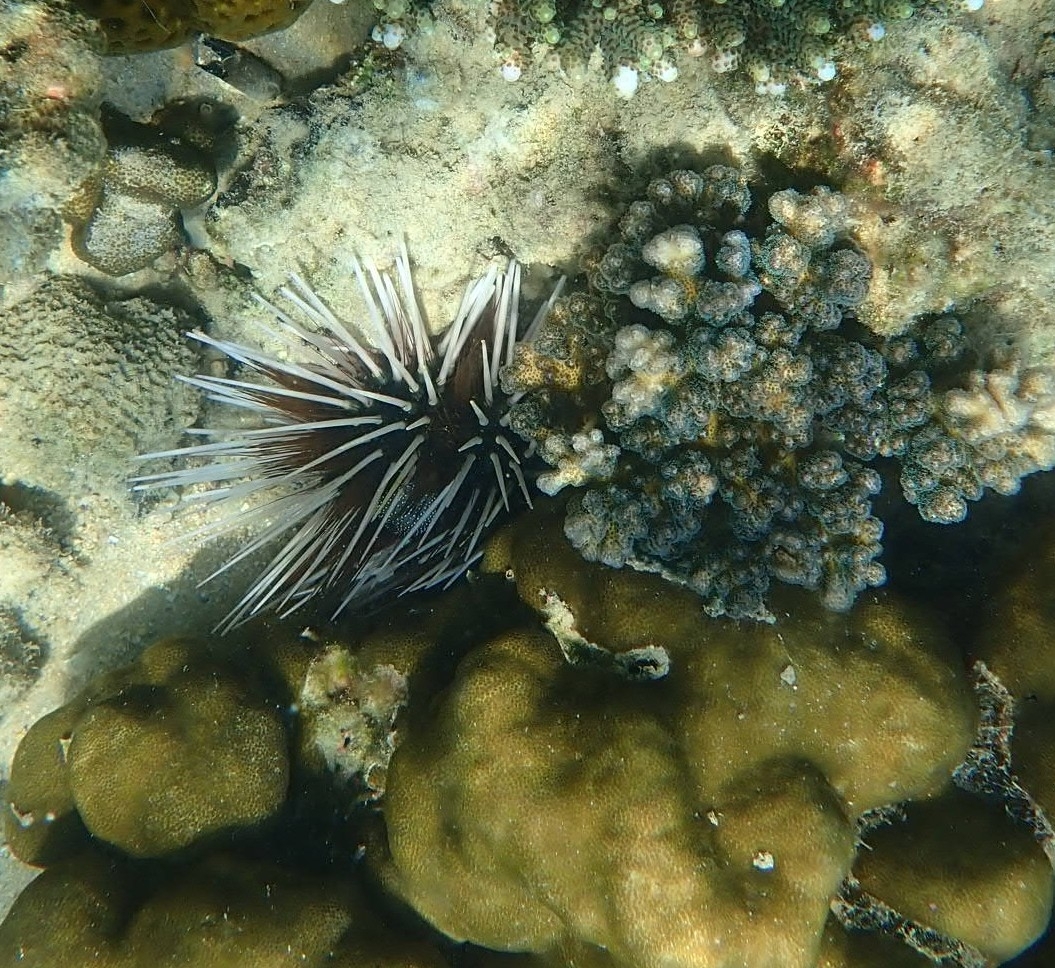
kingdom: Animalia
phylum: Echinodermata
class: Echinoidea
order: Diadematoida
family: Diadematidae
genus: Echinothrix
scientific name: Echinothrix calamaris
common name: Banded sea urchin
